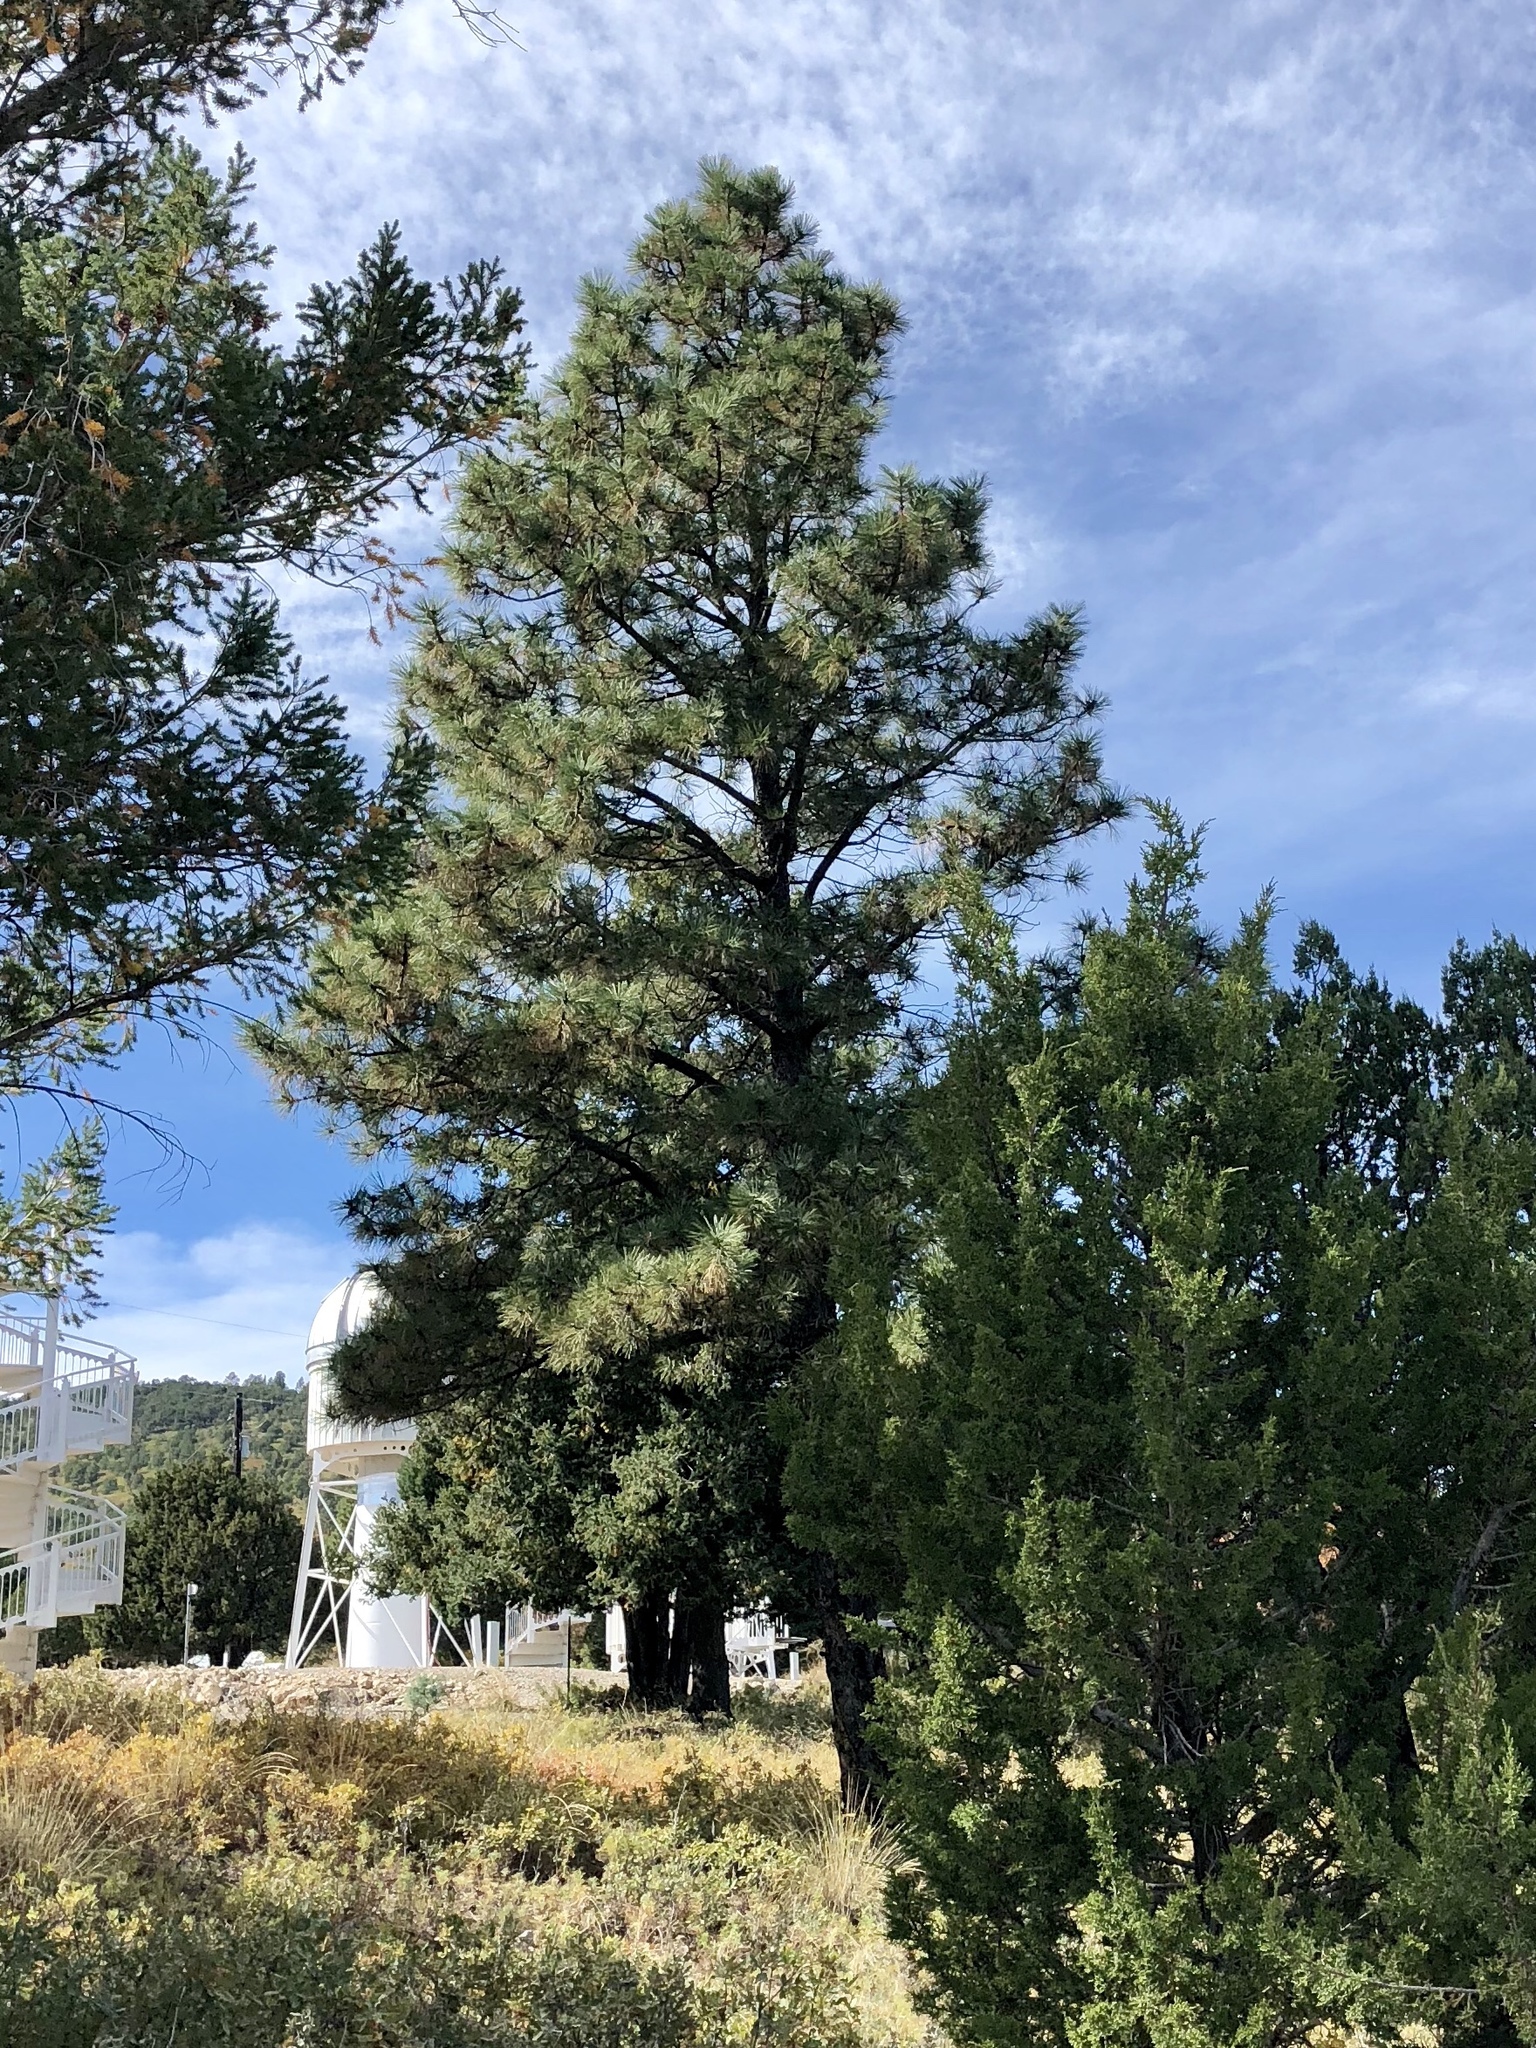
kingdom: Plantae
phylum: Tracheophyta
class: Pinopsida
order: Pinales
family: Pinaceae
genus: Pinus
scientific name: Pinus ponderosa
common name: Western yellow-pine
